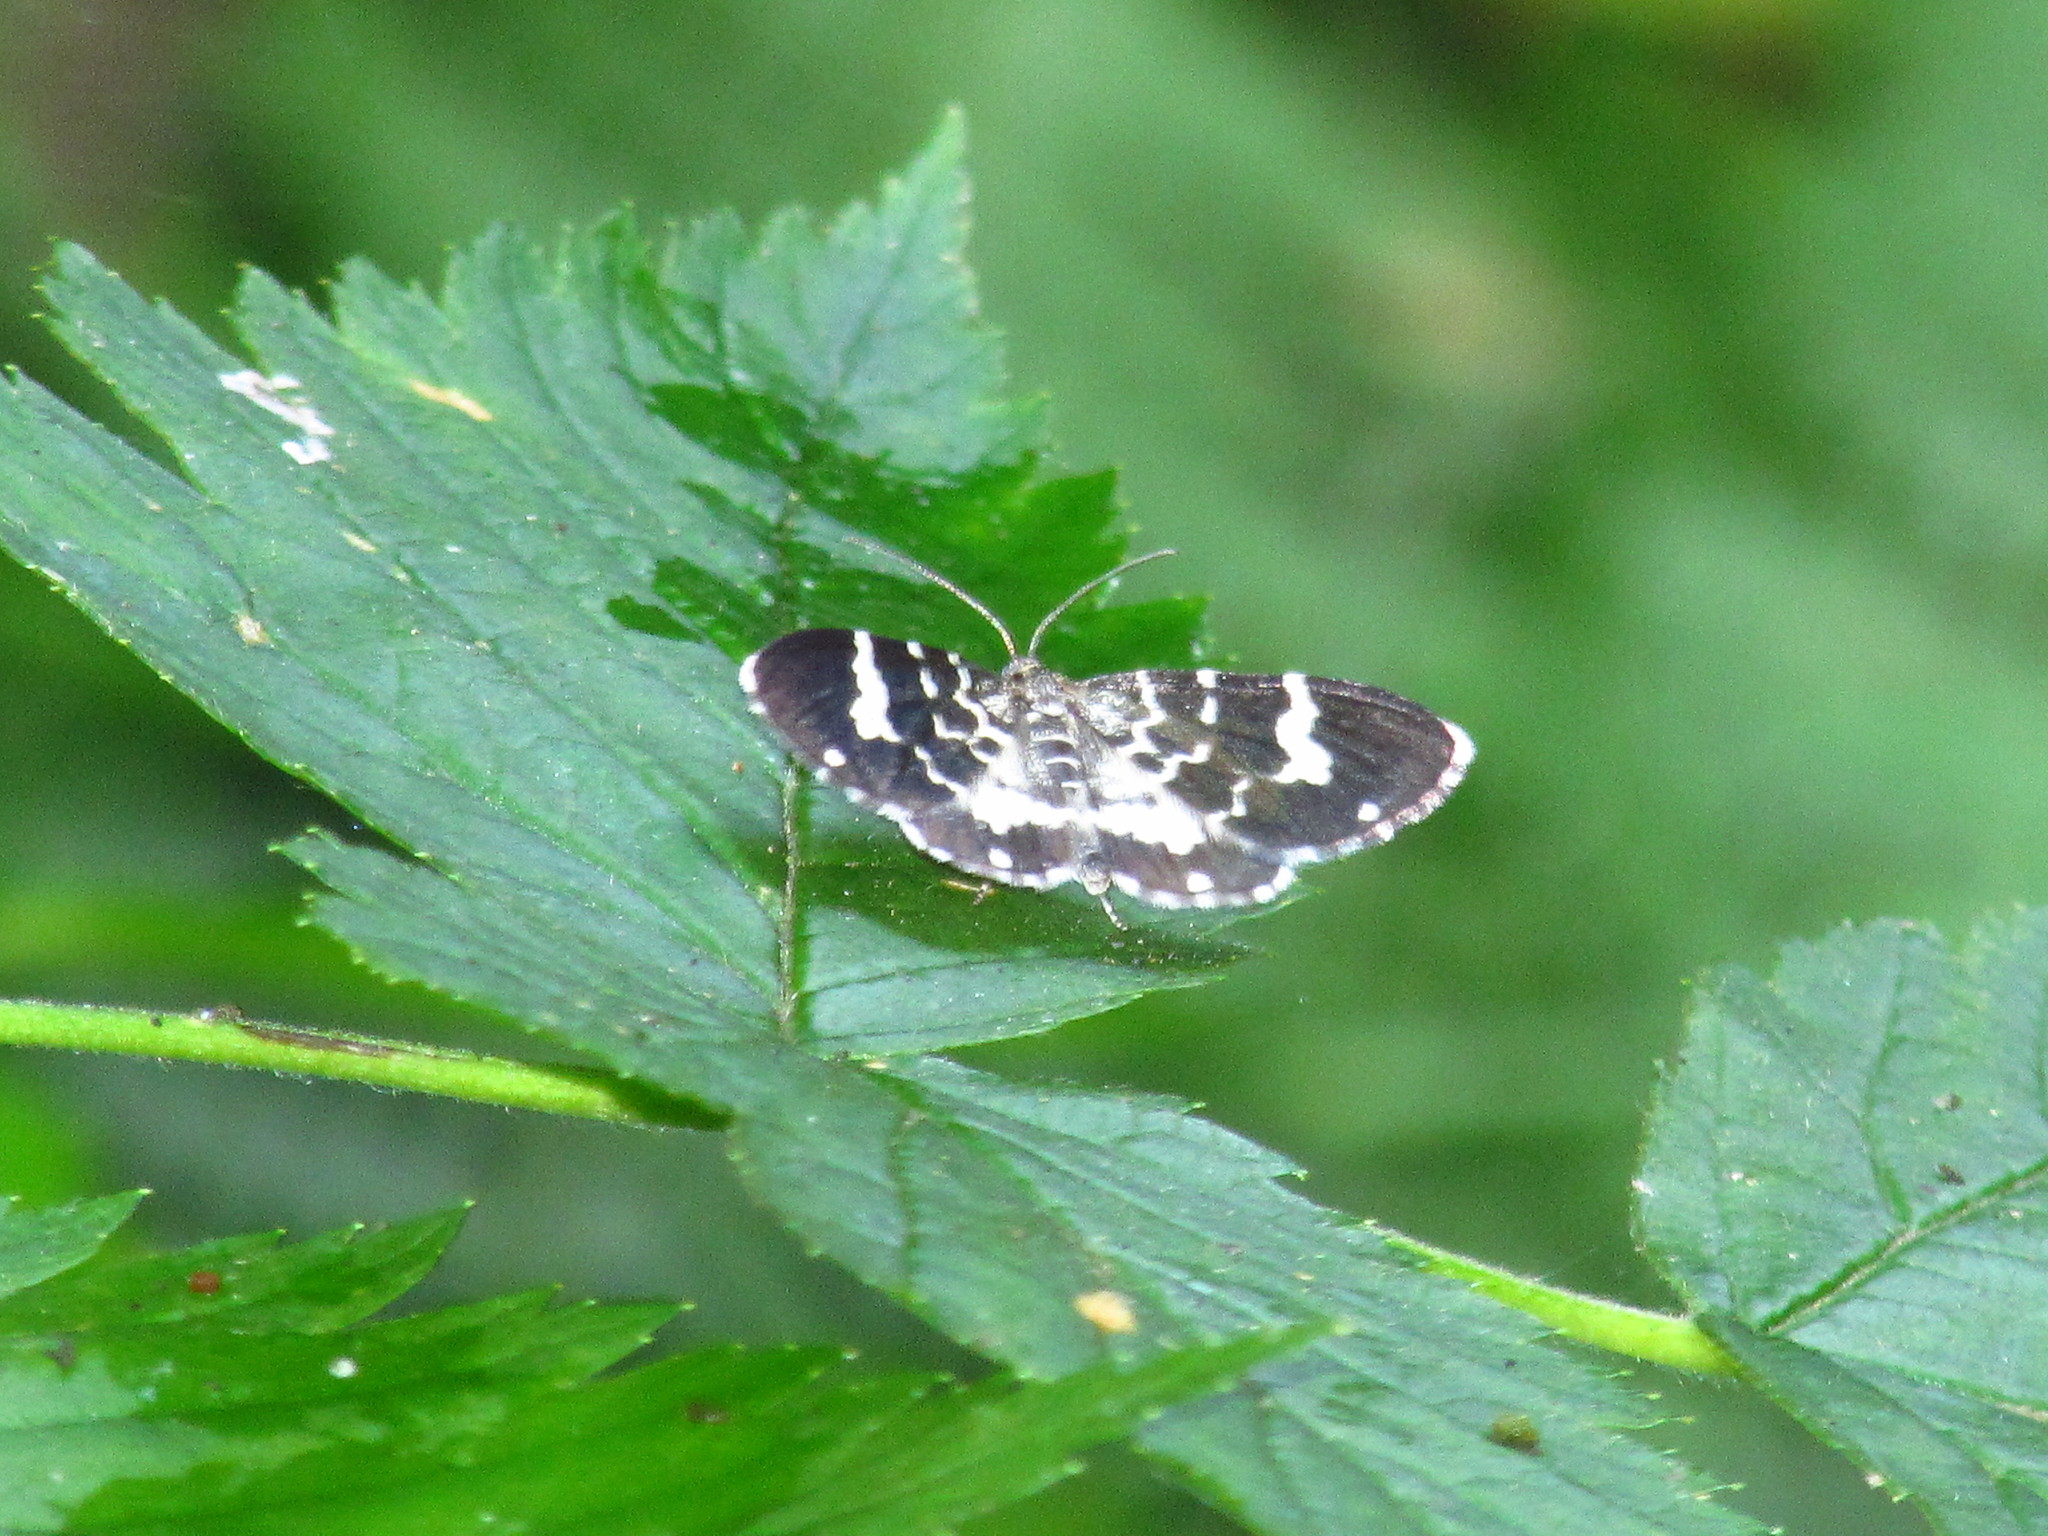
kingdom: Animalia
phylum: Arthropoda
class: Insecta
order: Lepidoptera
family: Geometridae
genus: Trichodezia
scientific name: Trichodezia californiata
